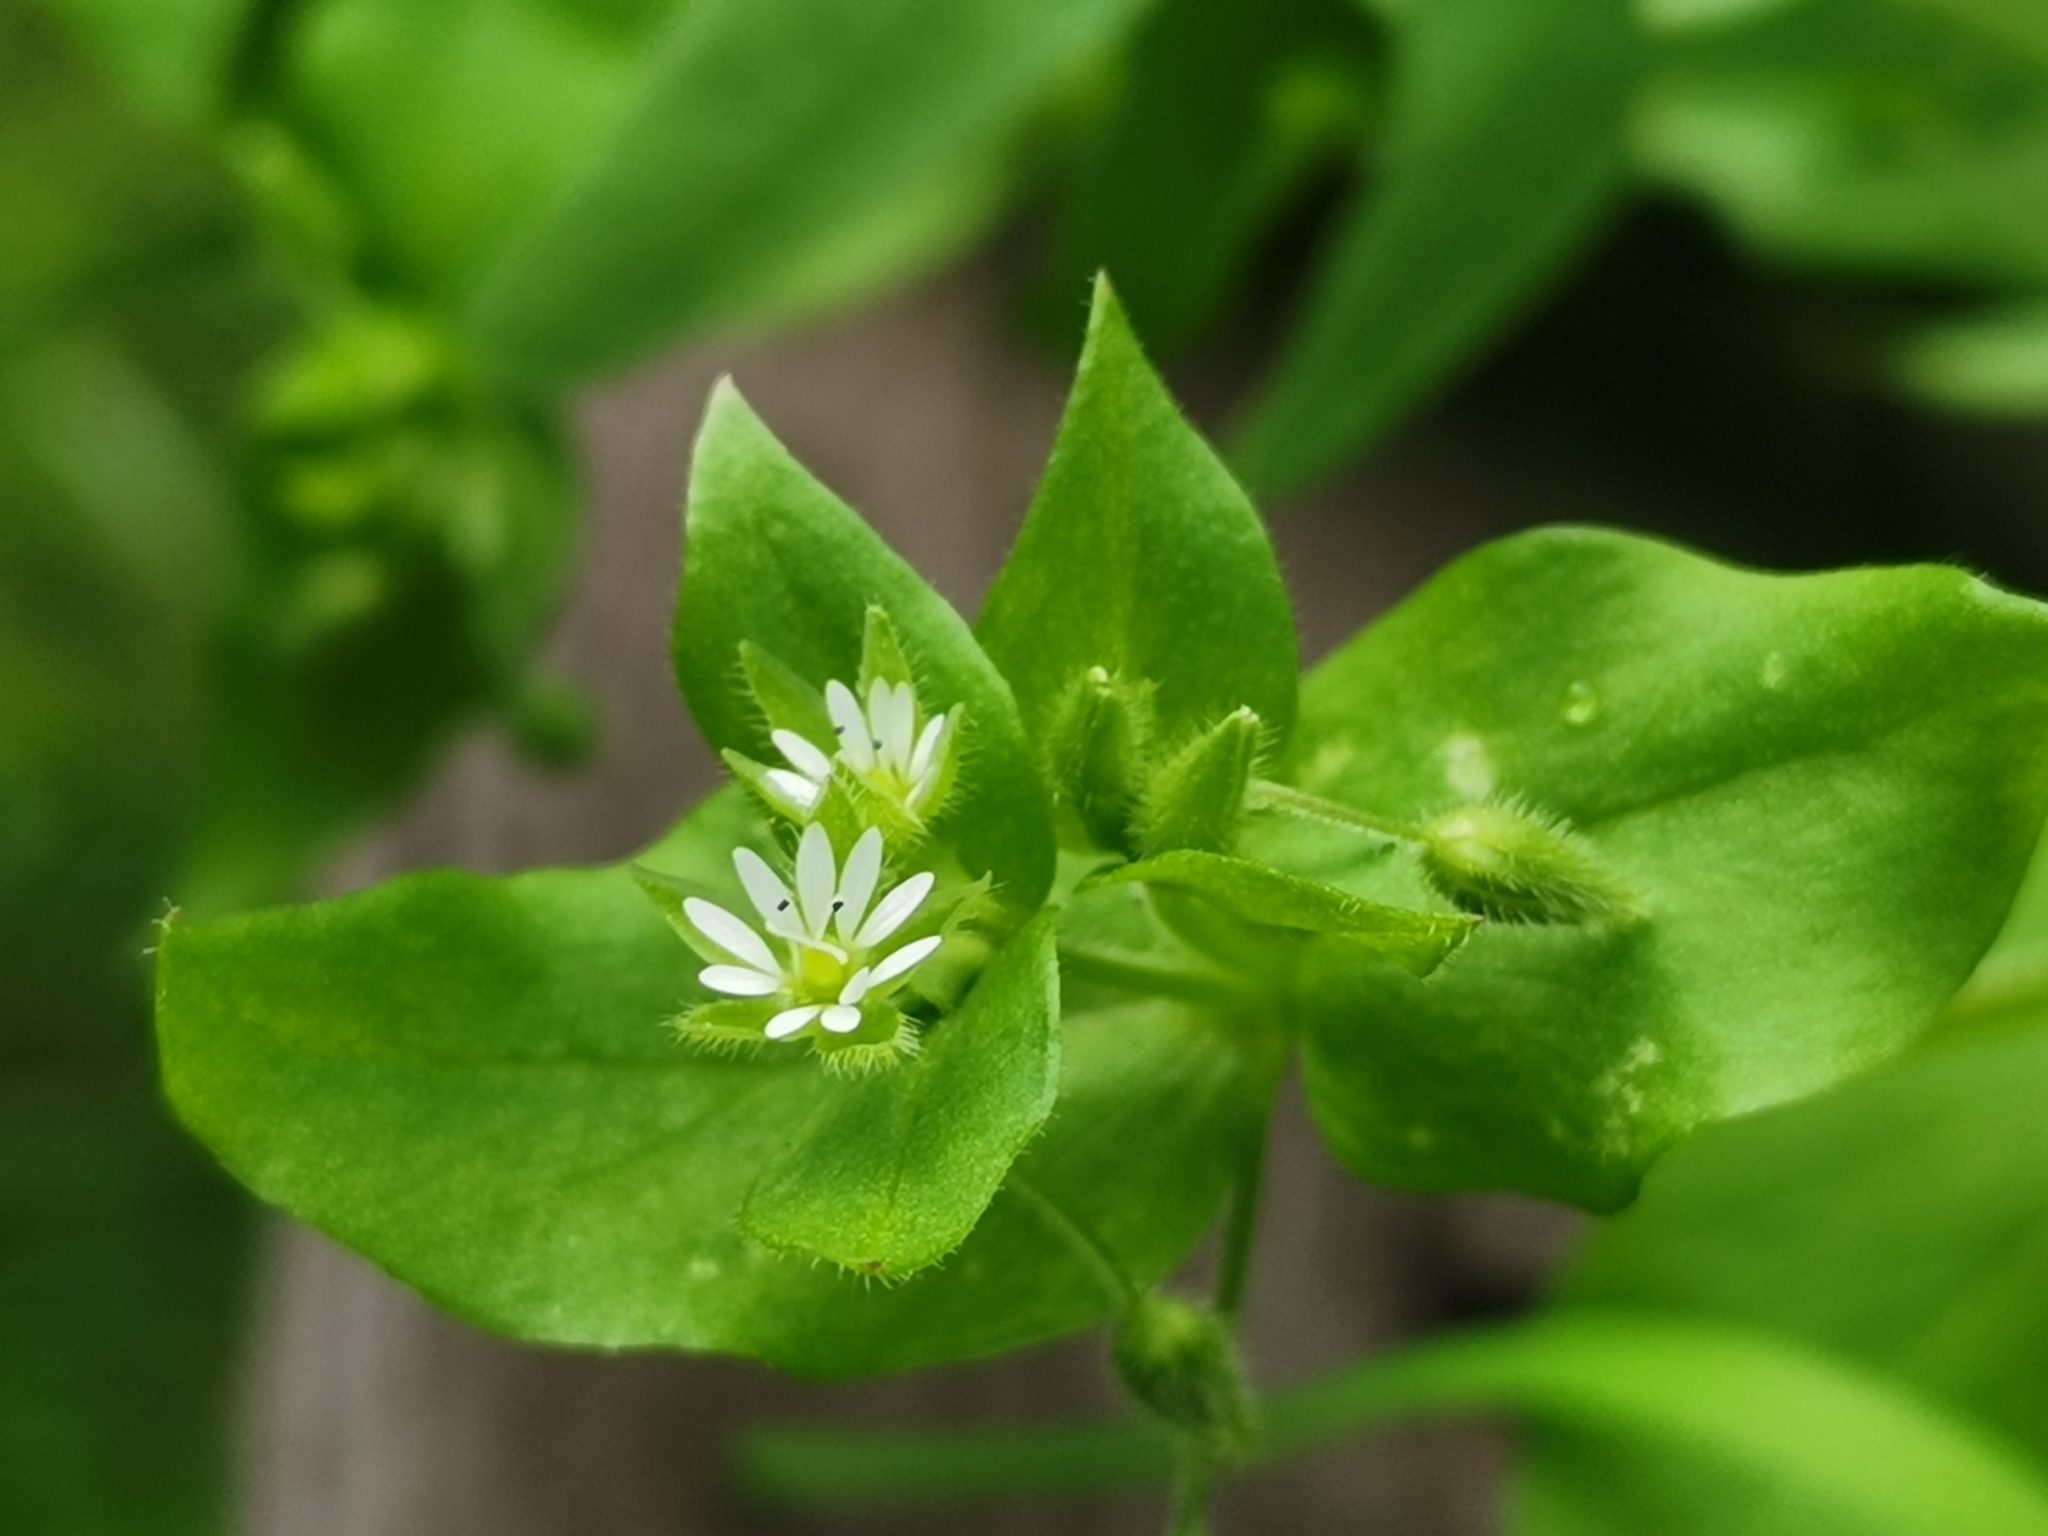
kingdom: Plantae
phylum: Tracheophyta
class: Magnoliopsida
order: Caryophyllales
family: Caryophyllaceae
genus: Stellaria
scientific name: Stellaria media
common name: Common chickweed
